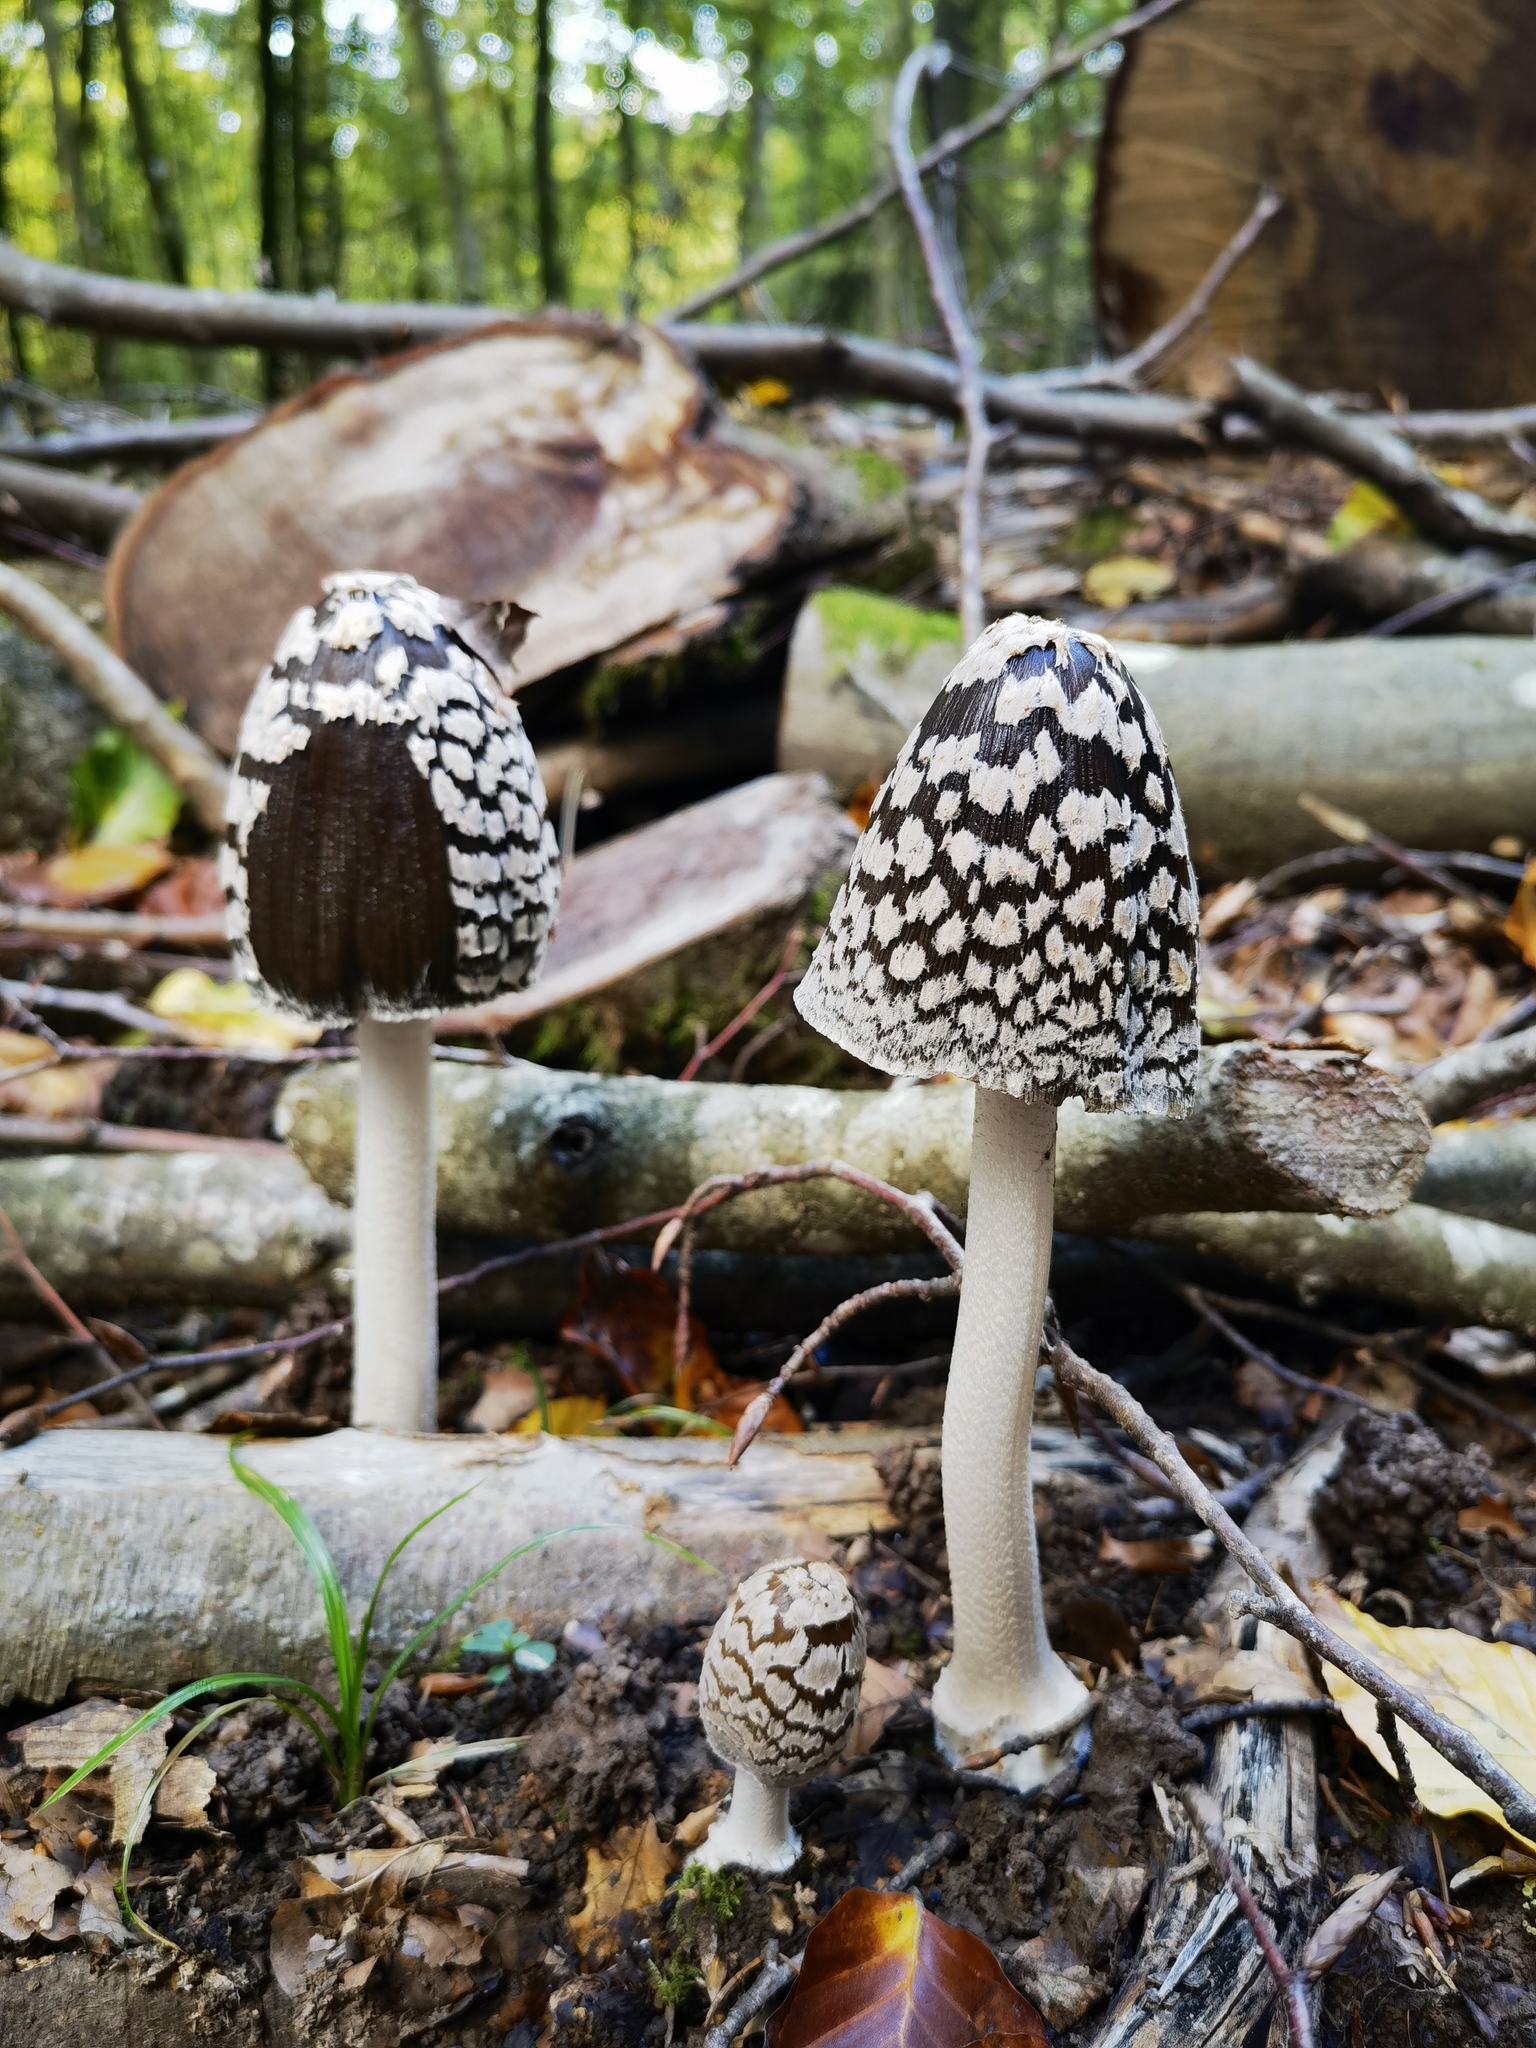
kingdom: Fungi
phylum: Basidiomycota
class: Agaricomycetes
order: Agaricales
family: Psathyrellaceae
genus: Coprinopsis
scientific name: Coprinopsis picacea
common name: Magpie inkcap
